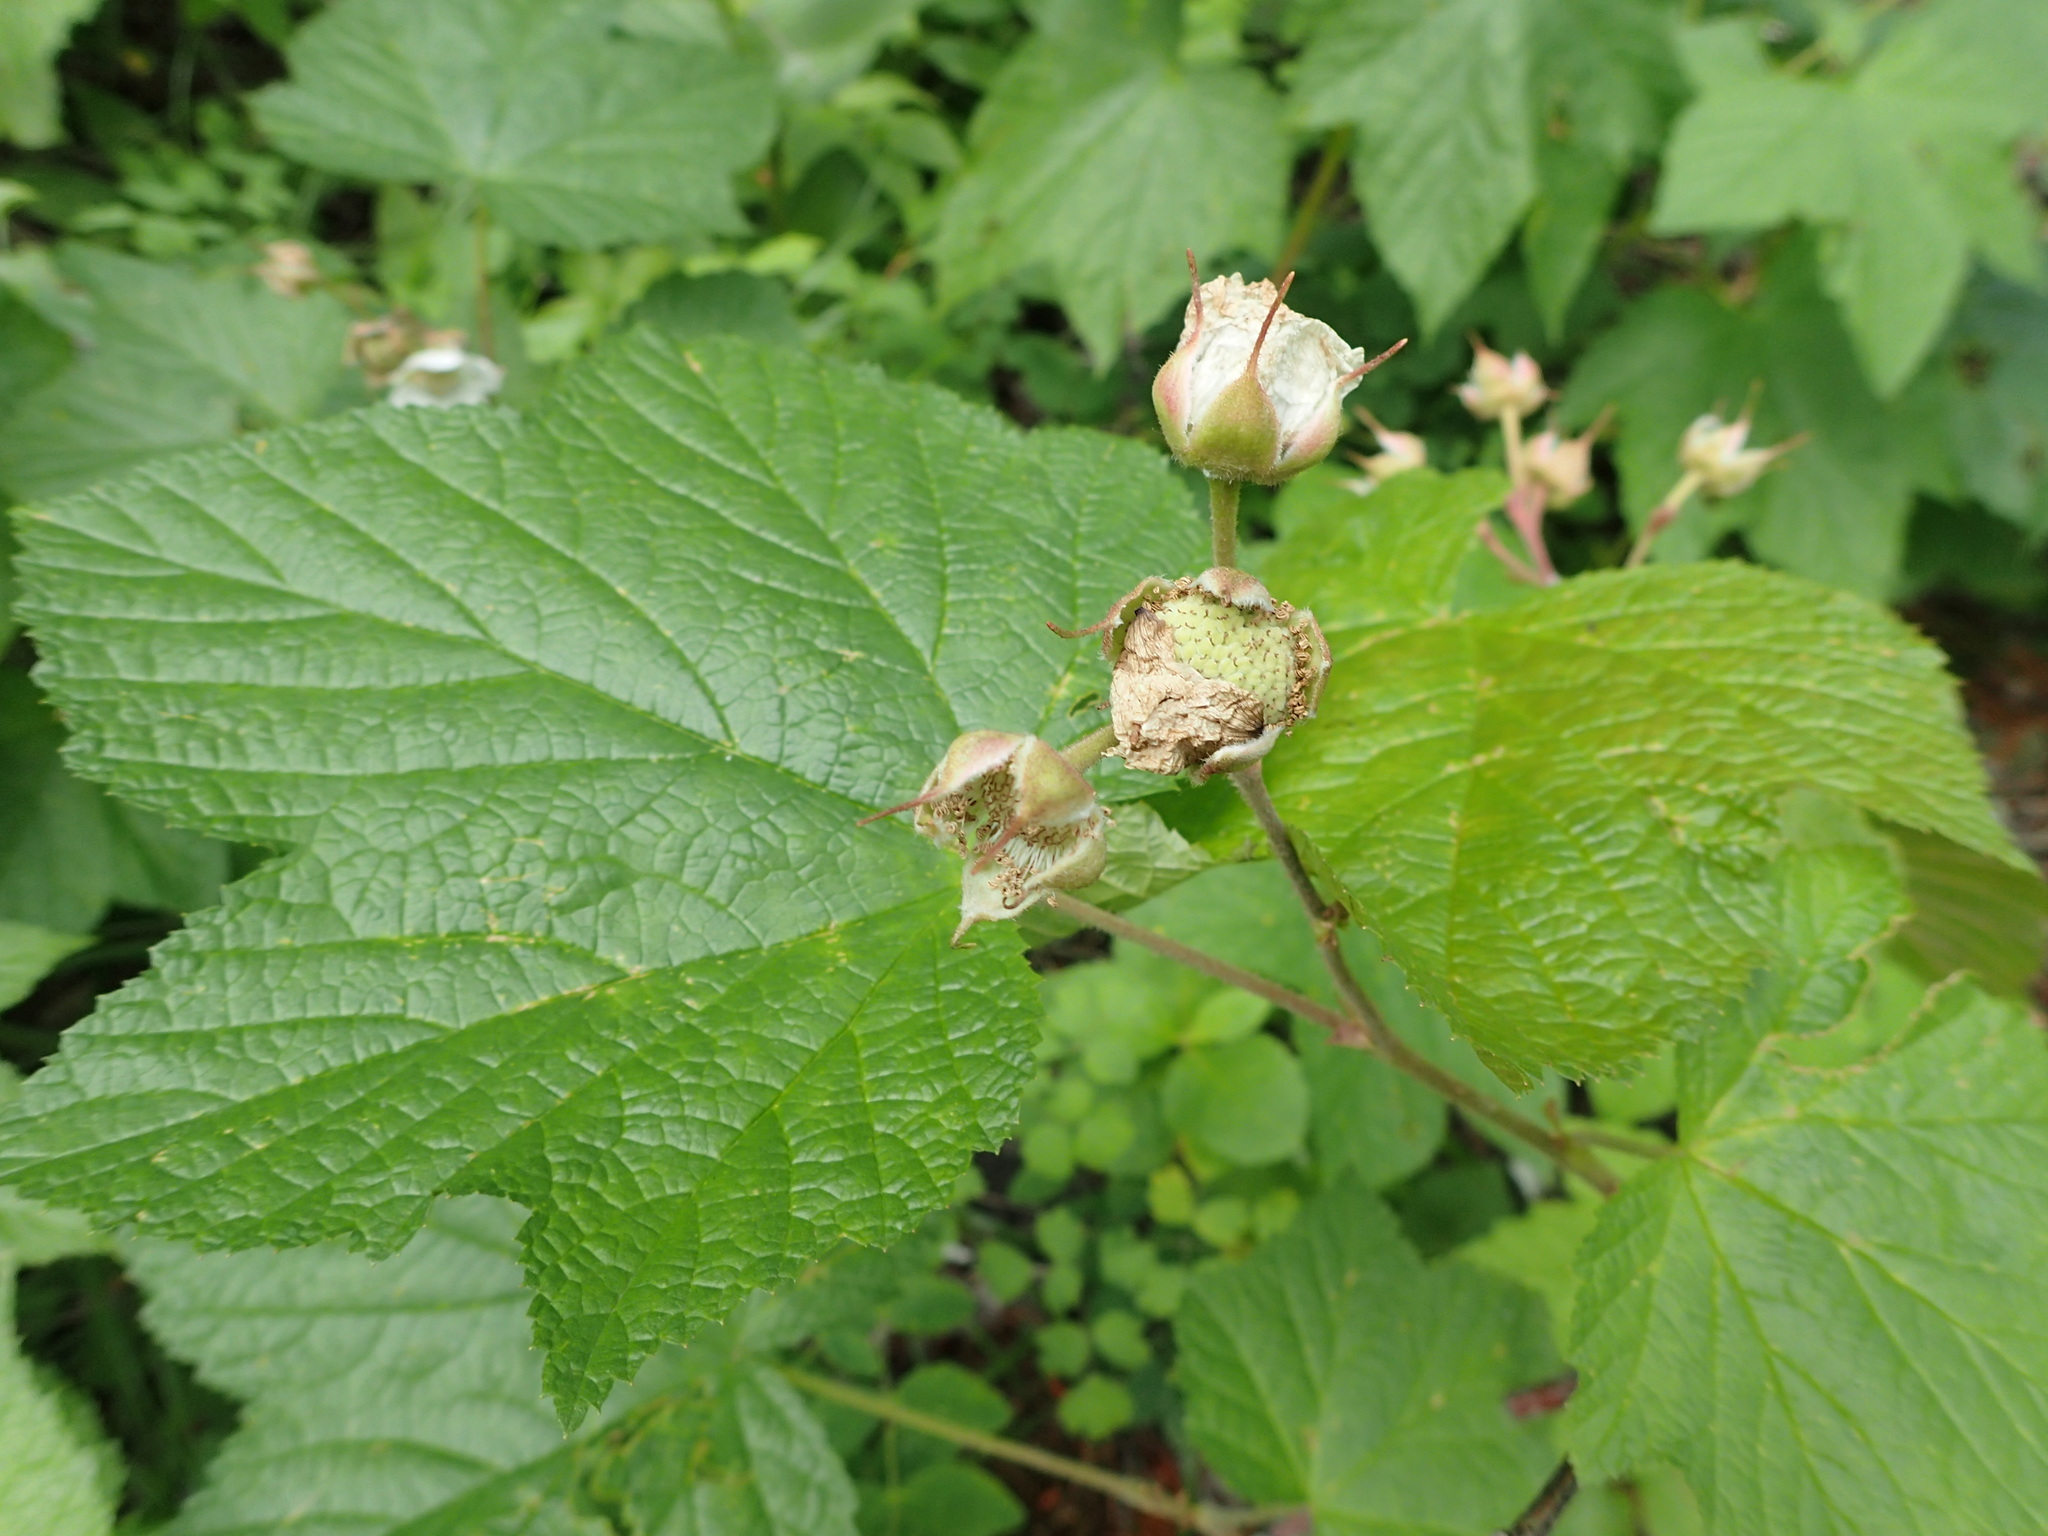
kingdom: Plantae
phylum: Tracheophyta
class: Magnoliopsida
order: Rosales
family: Rosaceae
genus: Rubus
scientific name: Rubus parviflorus
